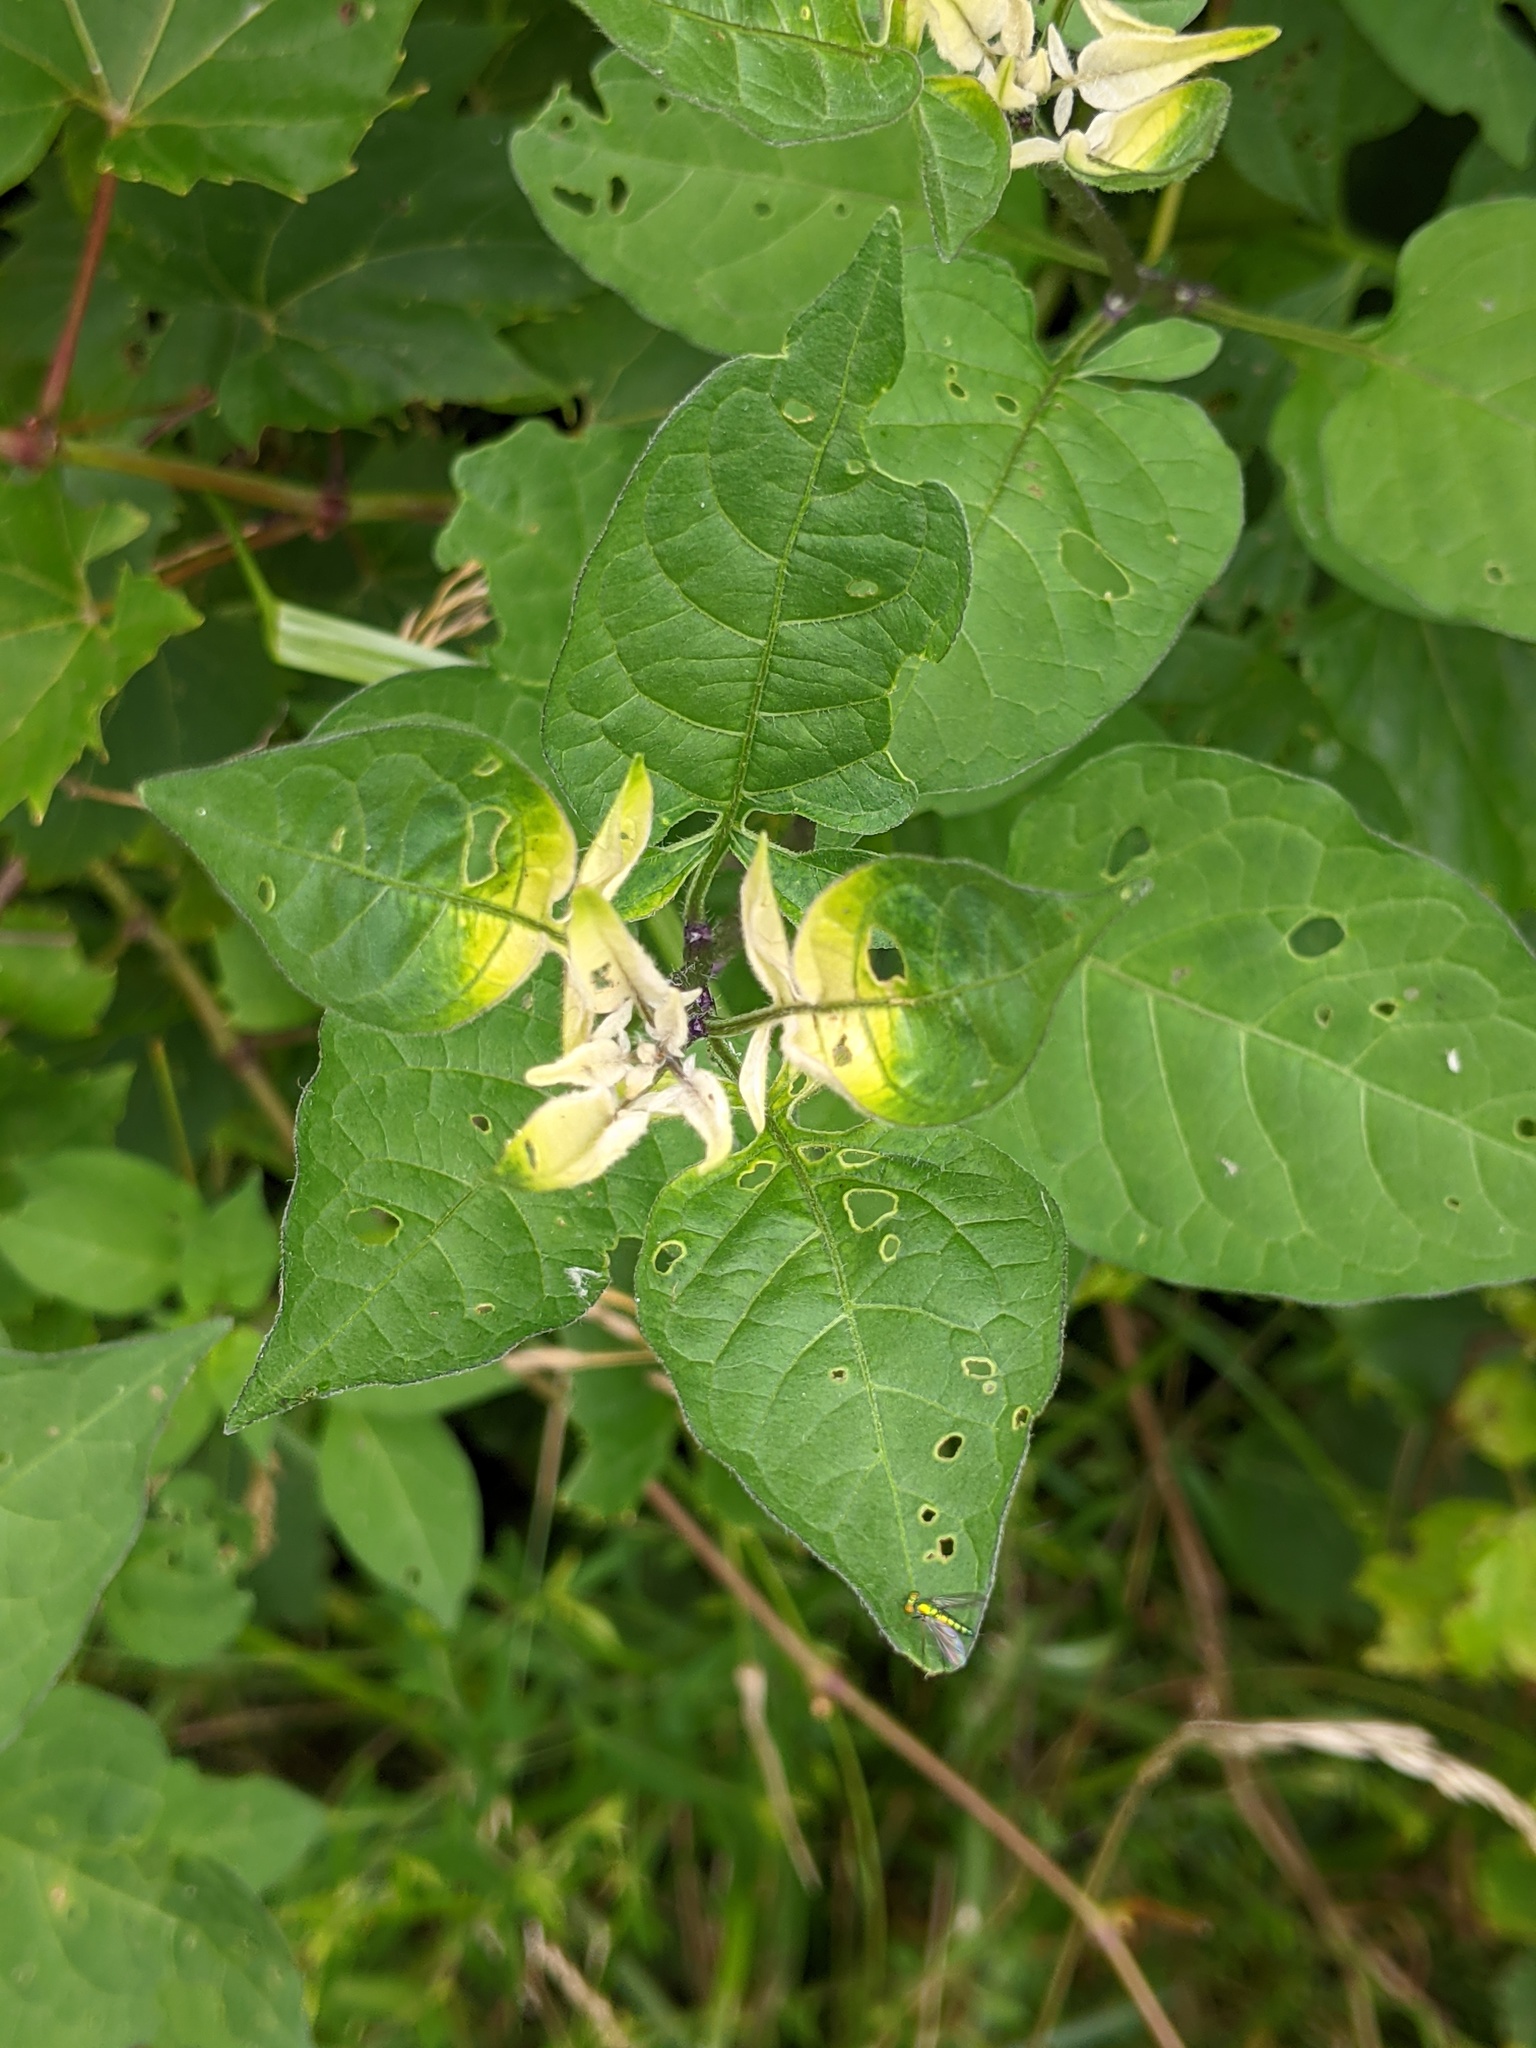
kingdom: Plantae
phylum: Tracheophyta
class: Magnoliopsida
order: Solanales
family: Solanaceae
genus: Solanum
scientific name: Solanum dulcamara
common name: Climbing nightshade
